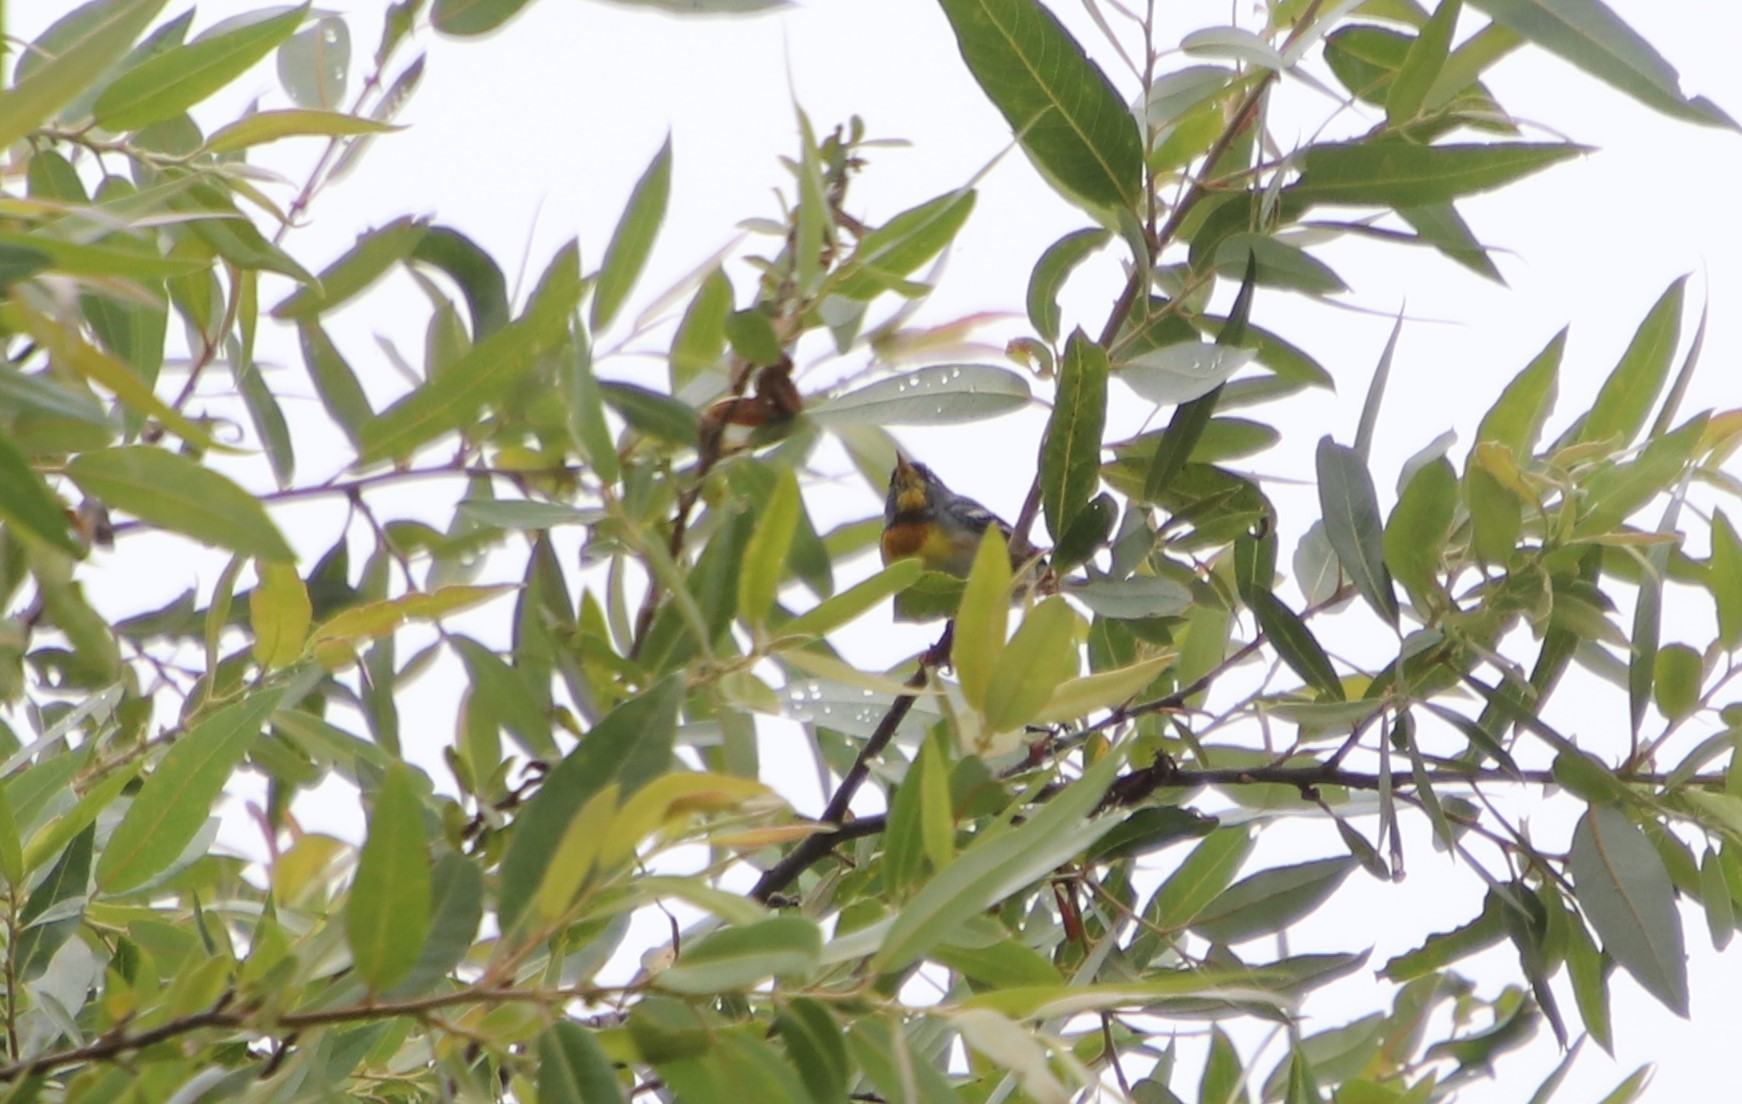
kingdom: Animalia
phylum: Chordata
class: Aves
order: Passeriformes
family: Parulidae
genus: Setophaga
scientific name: Setophaga americana
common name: Northern parula
